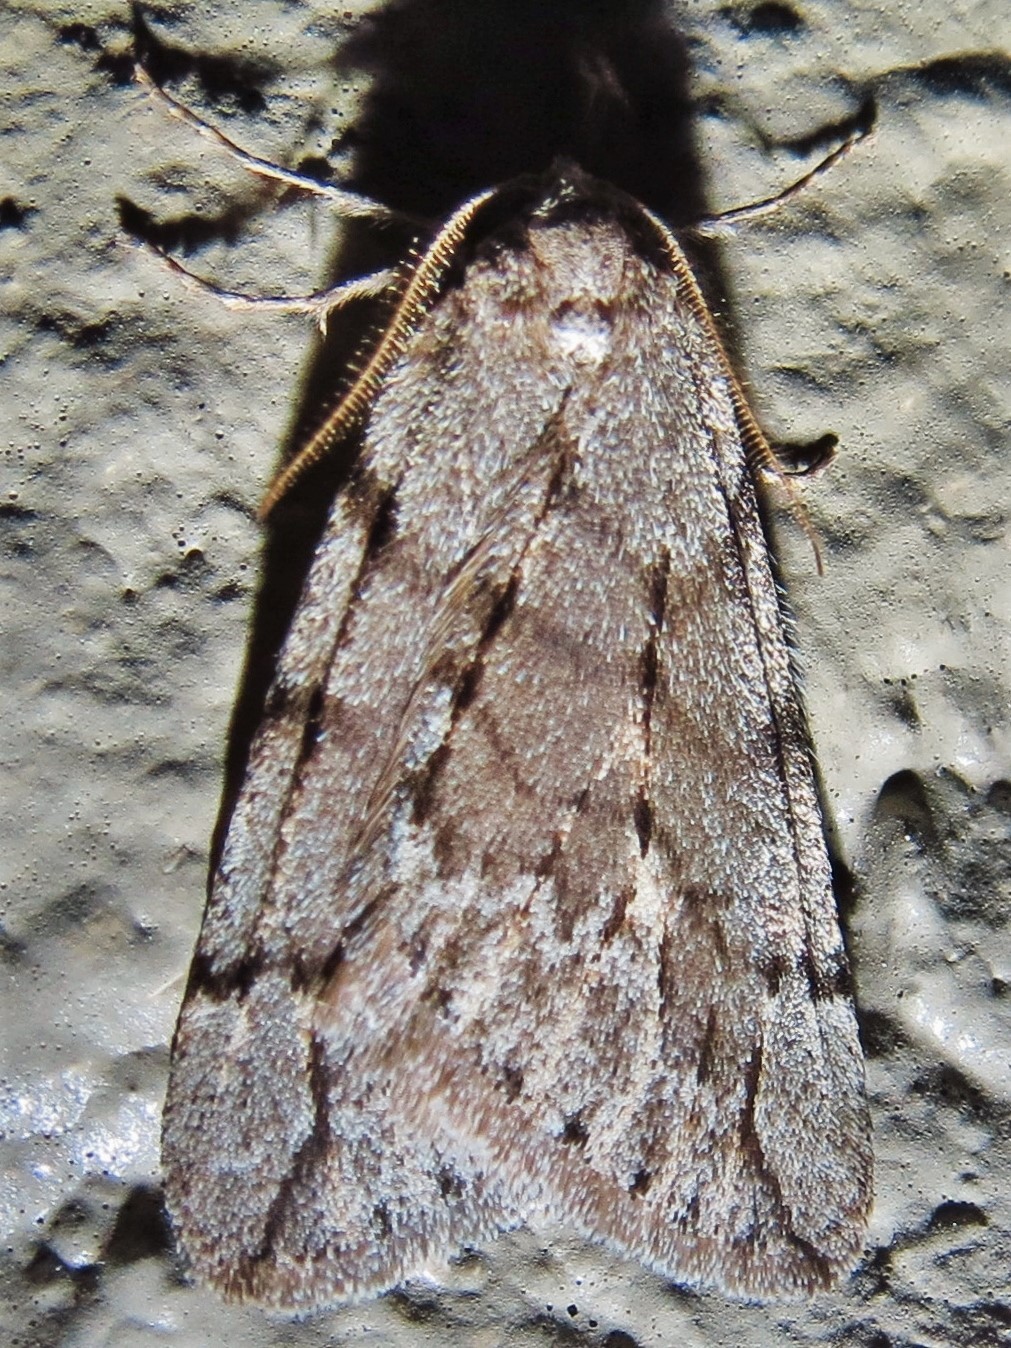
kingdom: Animalia
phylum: Arthropoda
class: Insecta
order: Lepidoptera
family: Geometridae
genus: Paleacrita
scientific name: Paleacrita vernata
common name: Spring cankerworm
